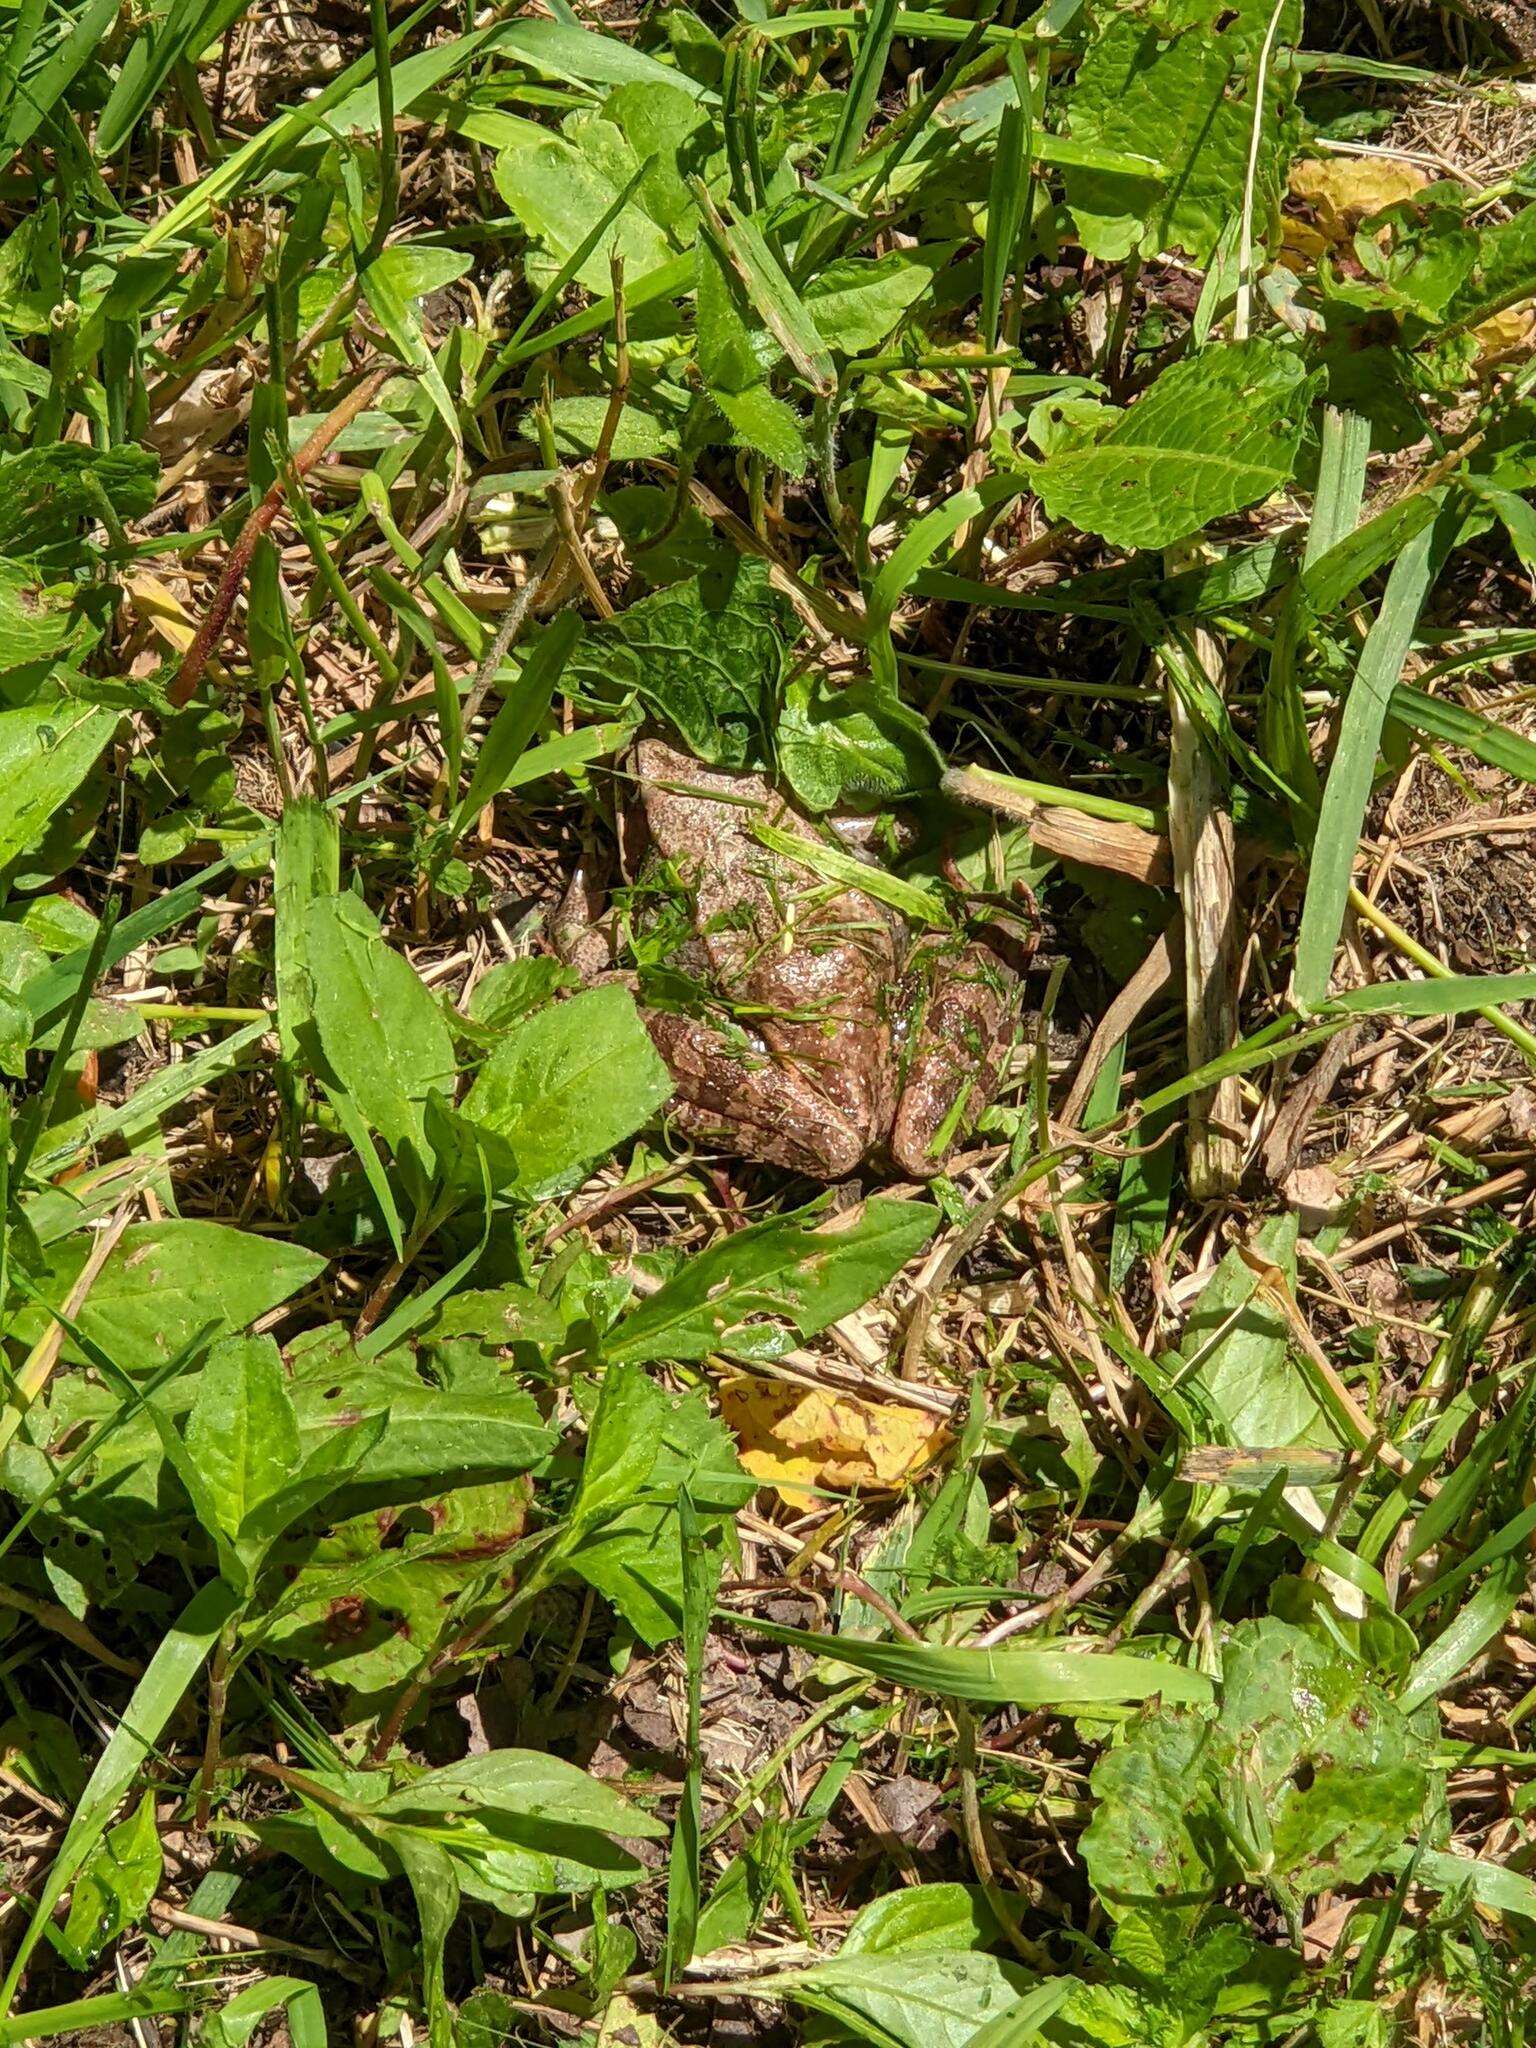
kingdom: Animalia
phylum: Chordata
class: Amphibia
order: Anura
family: Ranidae
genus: Lithobates
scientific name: Lithobates sylvaticus
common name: Wood frog
